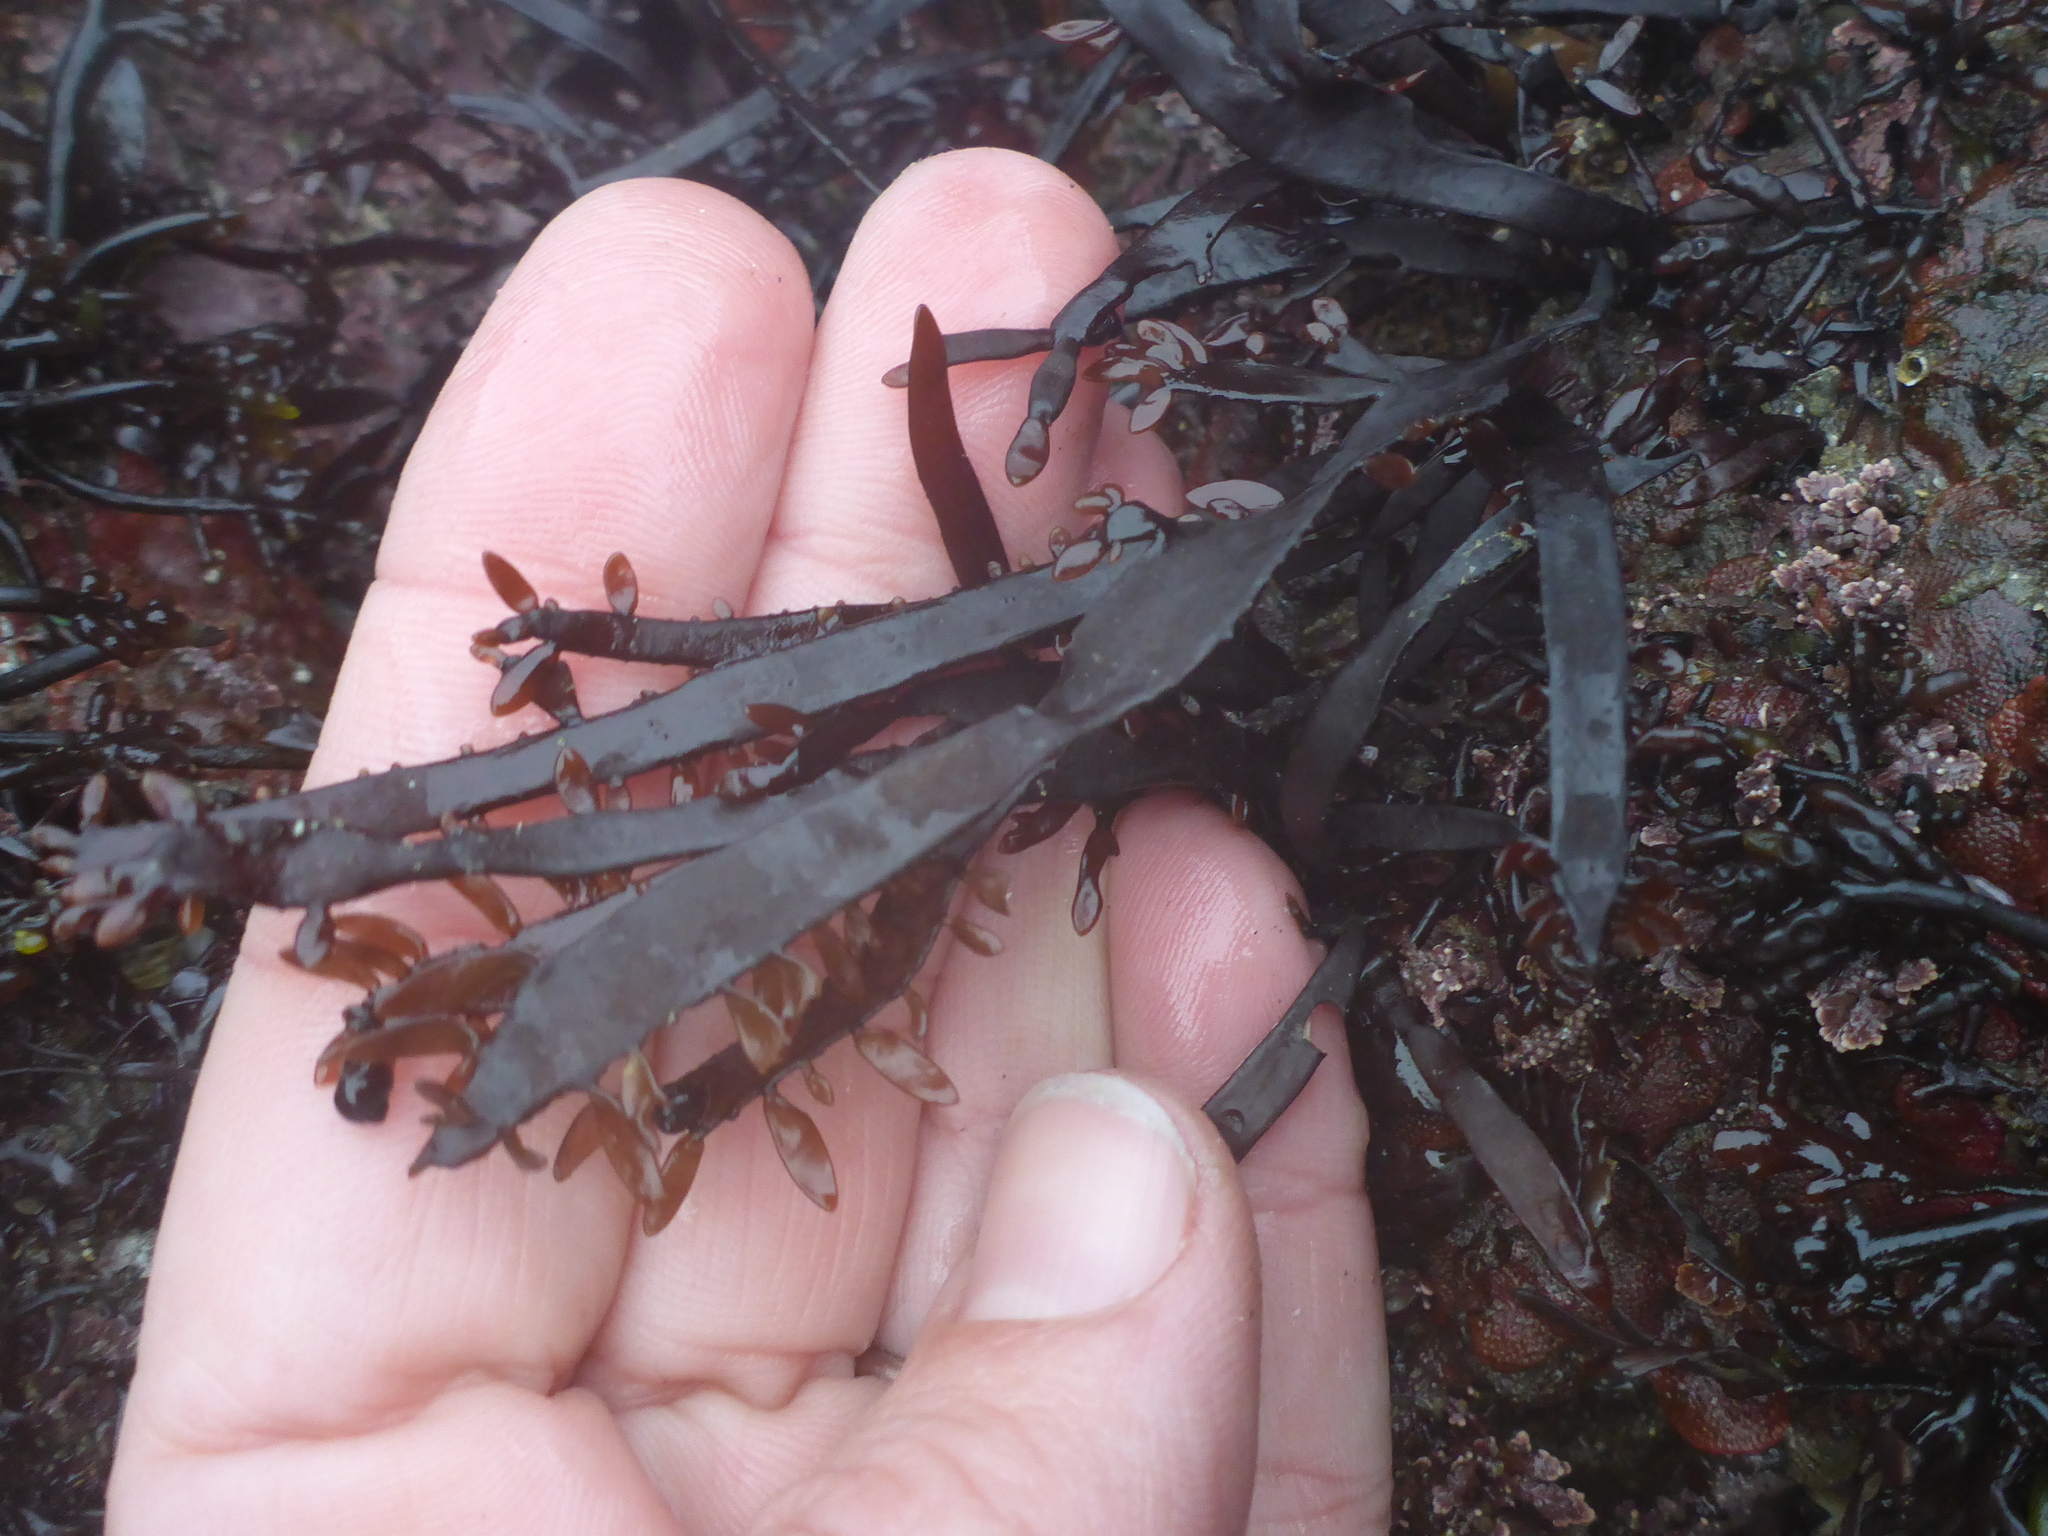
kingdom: Plantae
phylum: Rhodophyta
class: Florideophyceae
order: Halymeniales
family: Halymeniaceae
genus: Grateloupia
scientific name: Grateloupia Prionitis lanceolata
